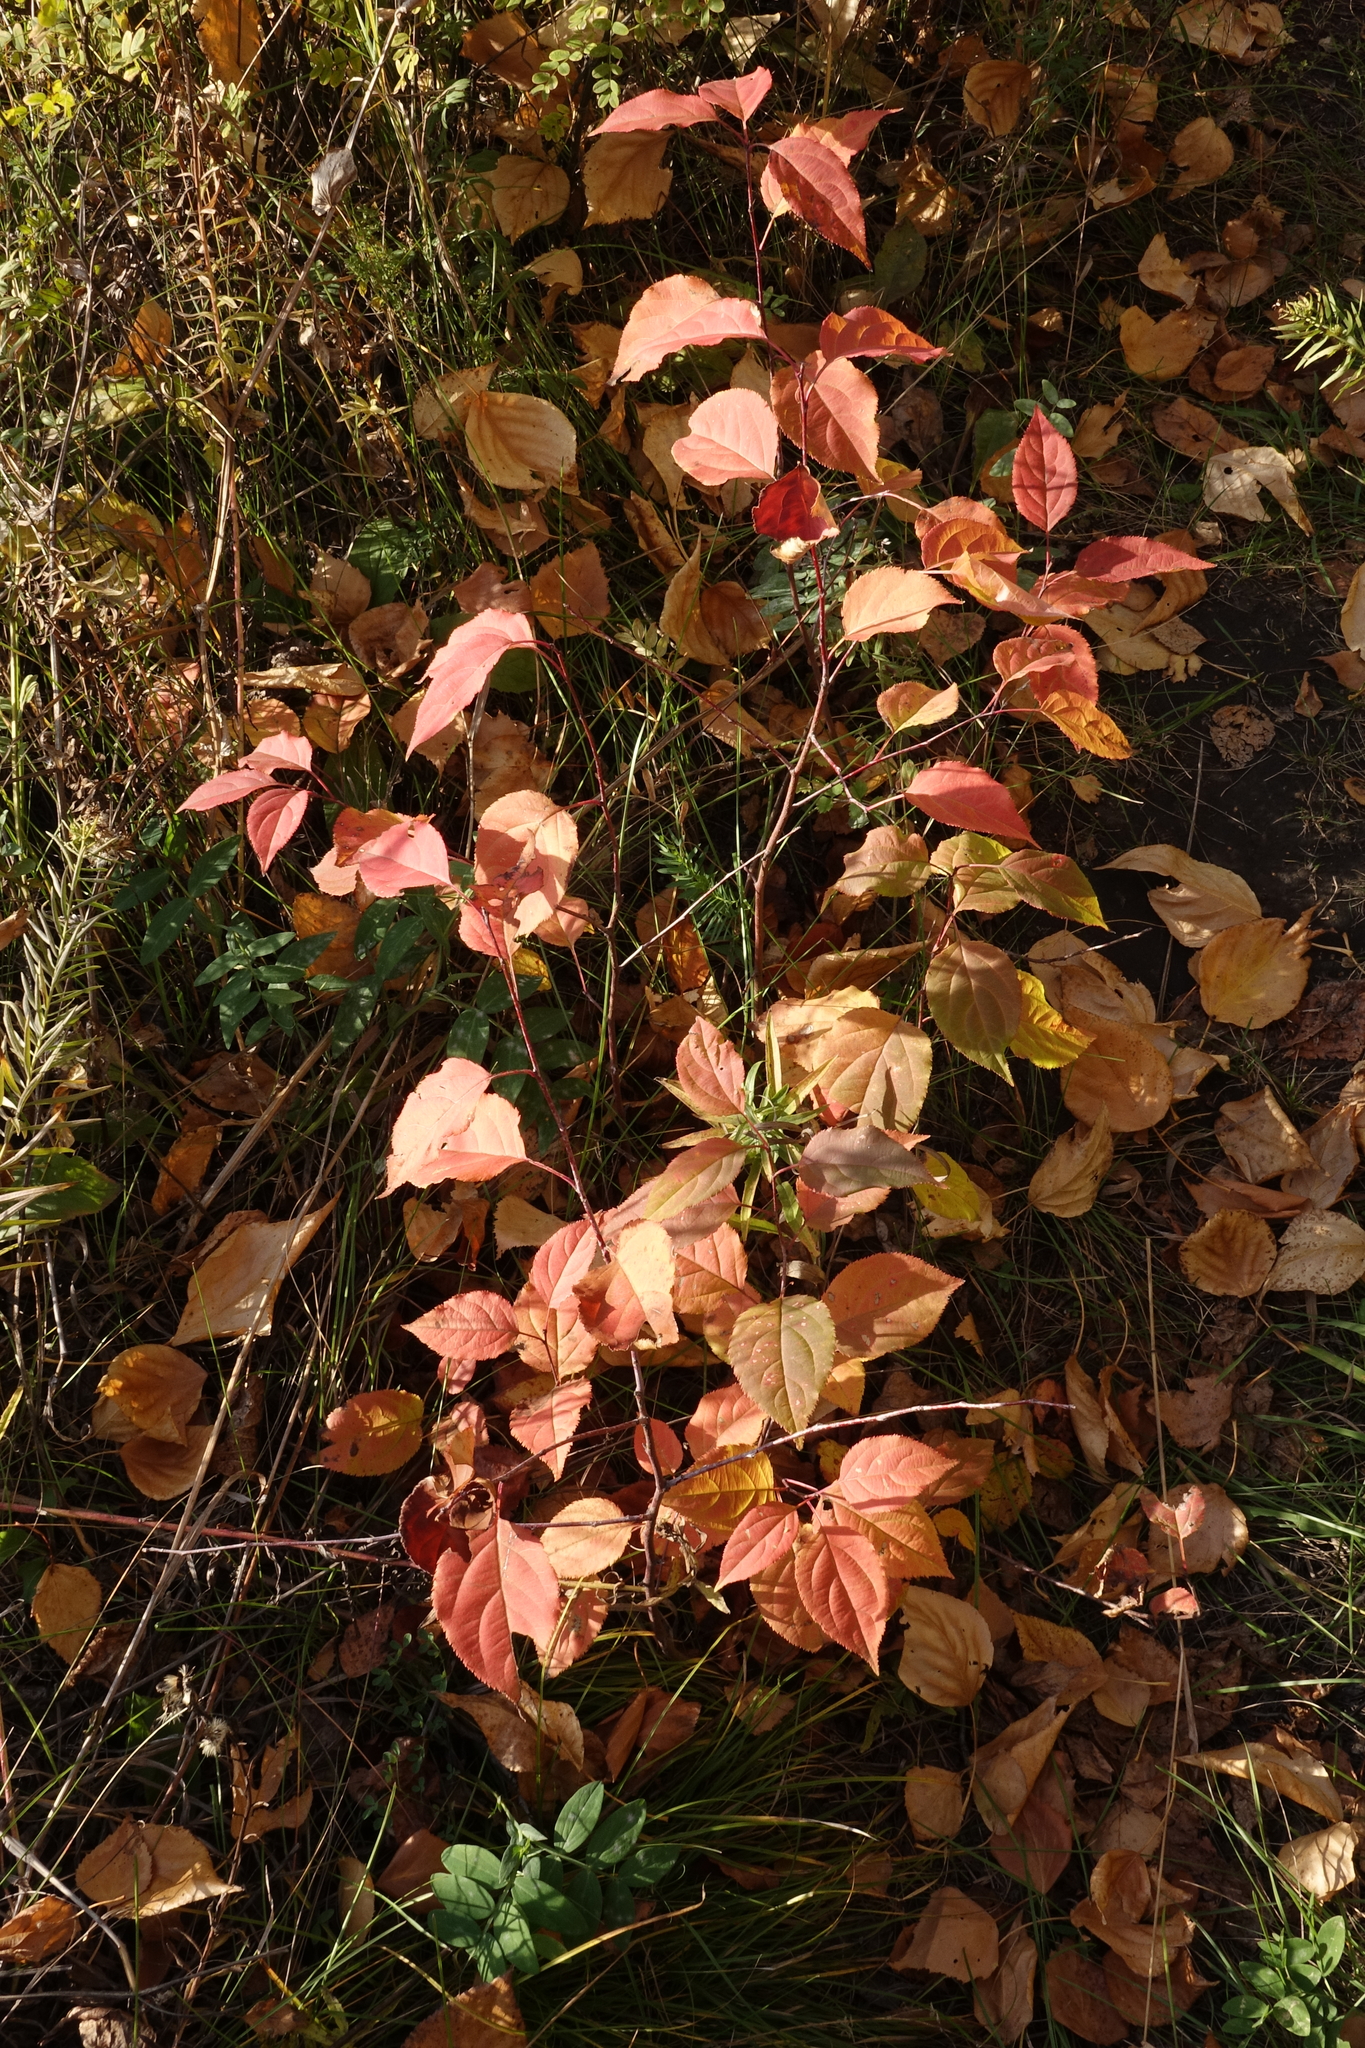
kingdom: Plantae
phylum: Tracheophyta
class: Magnoliopsida
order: Rosales
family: Rosaceae
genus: Malus
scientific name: Malus baccata
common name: Siberian crab
